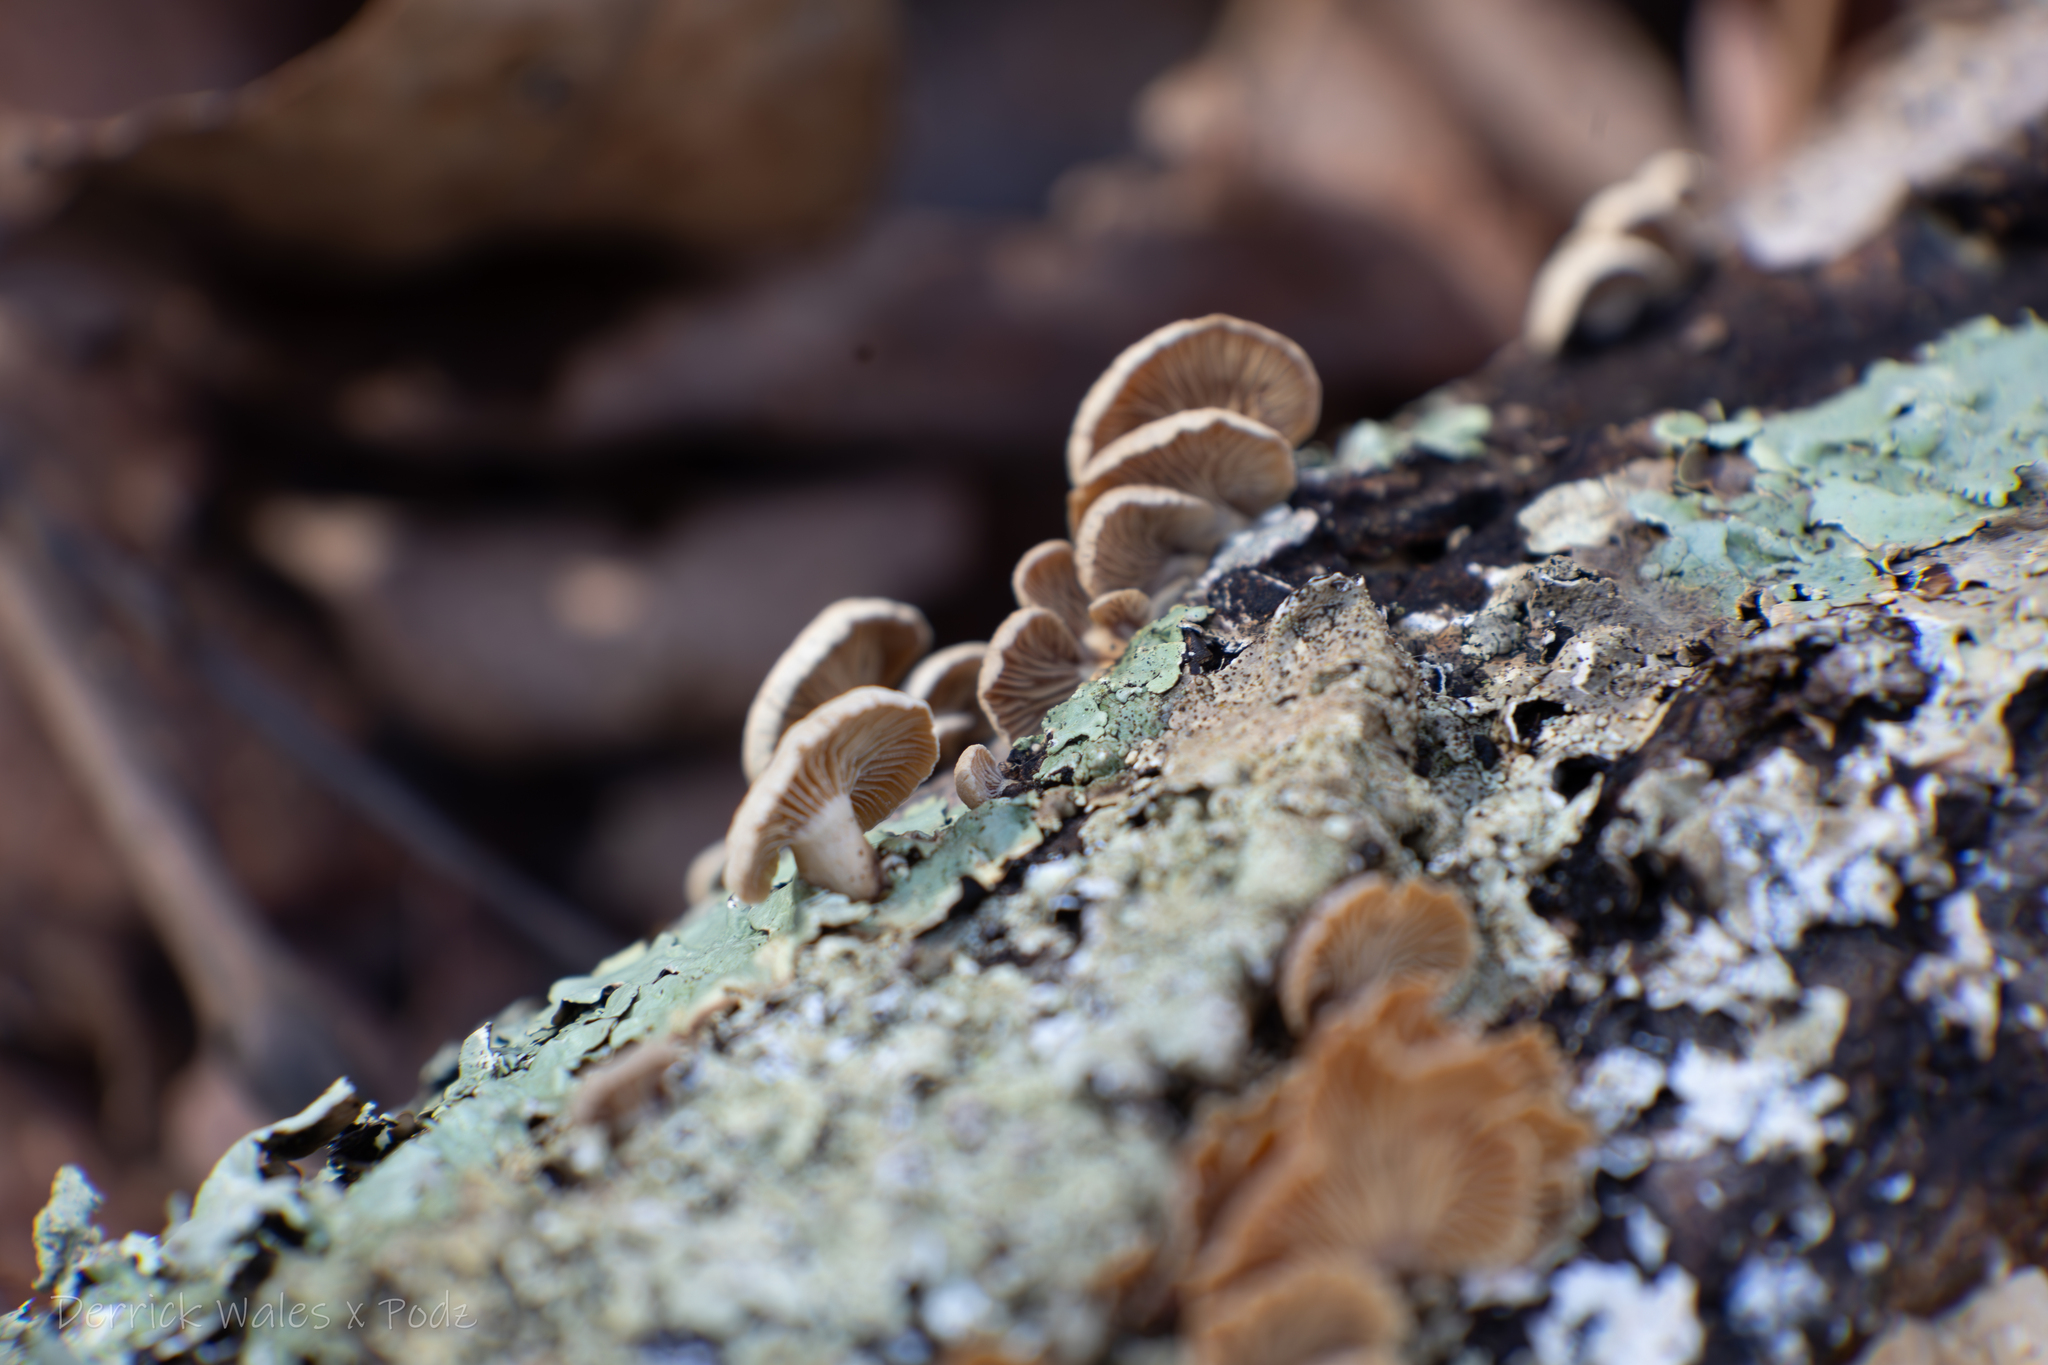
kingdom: Fungi
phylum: Basidiomycota
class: Agaricomycetes
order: Agaricales
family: Mycenaceae
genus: Panellus
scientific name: Panellus stipticus
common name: Bitter oysterling
